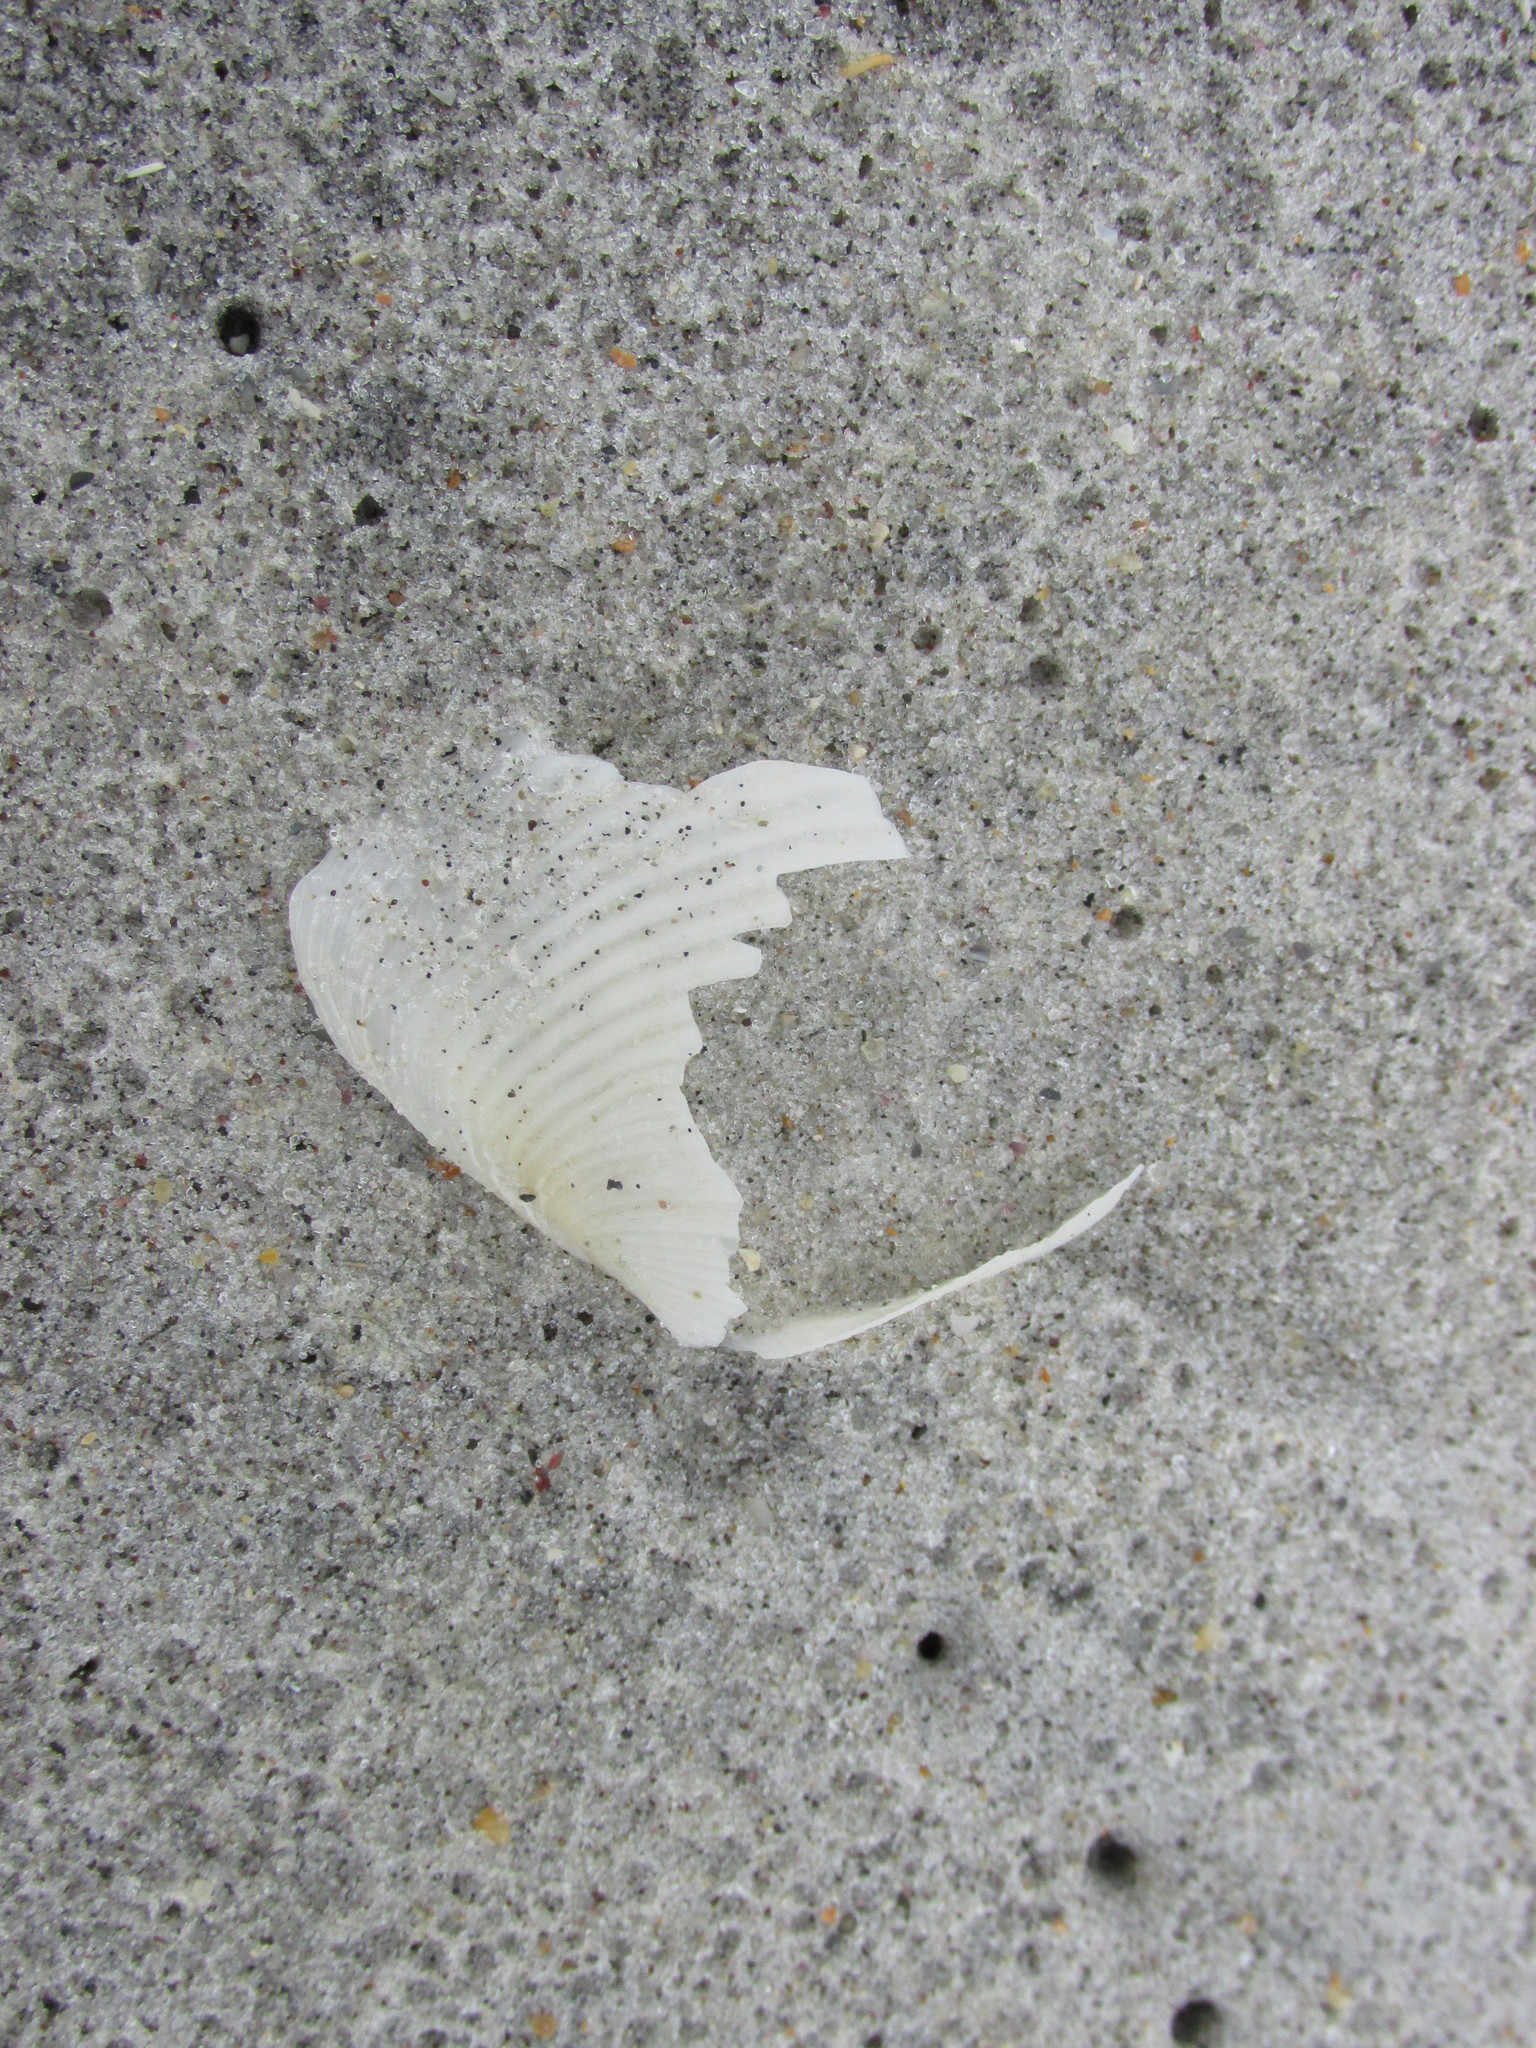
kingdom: Animalia
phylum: Mollusca
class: Bivalvia
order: Venerida
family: Anatinellidae
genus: Raeta
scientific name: Raeta plicatella
